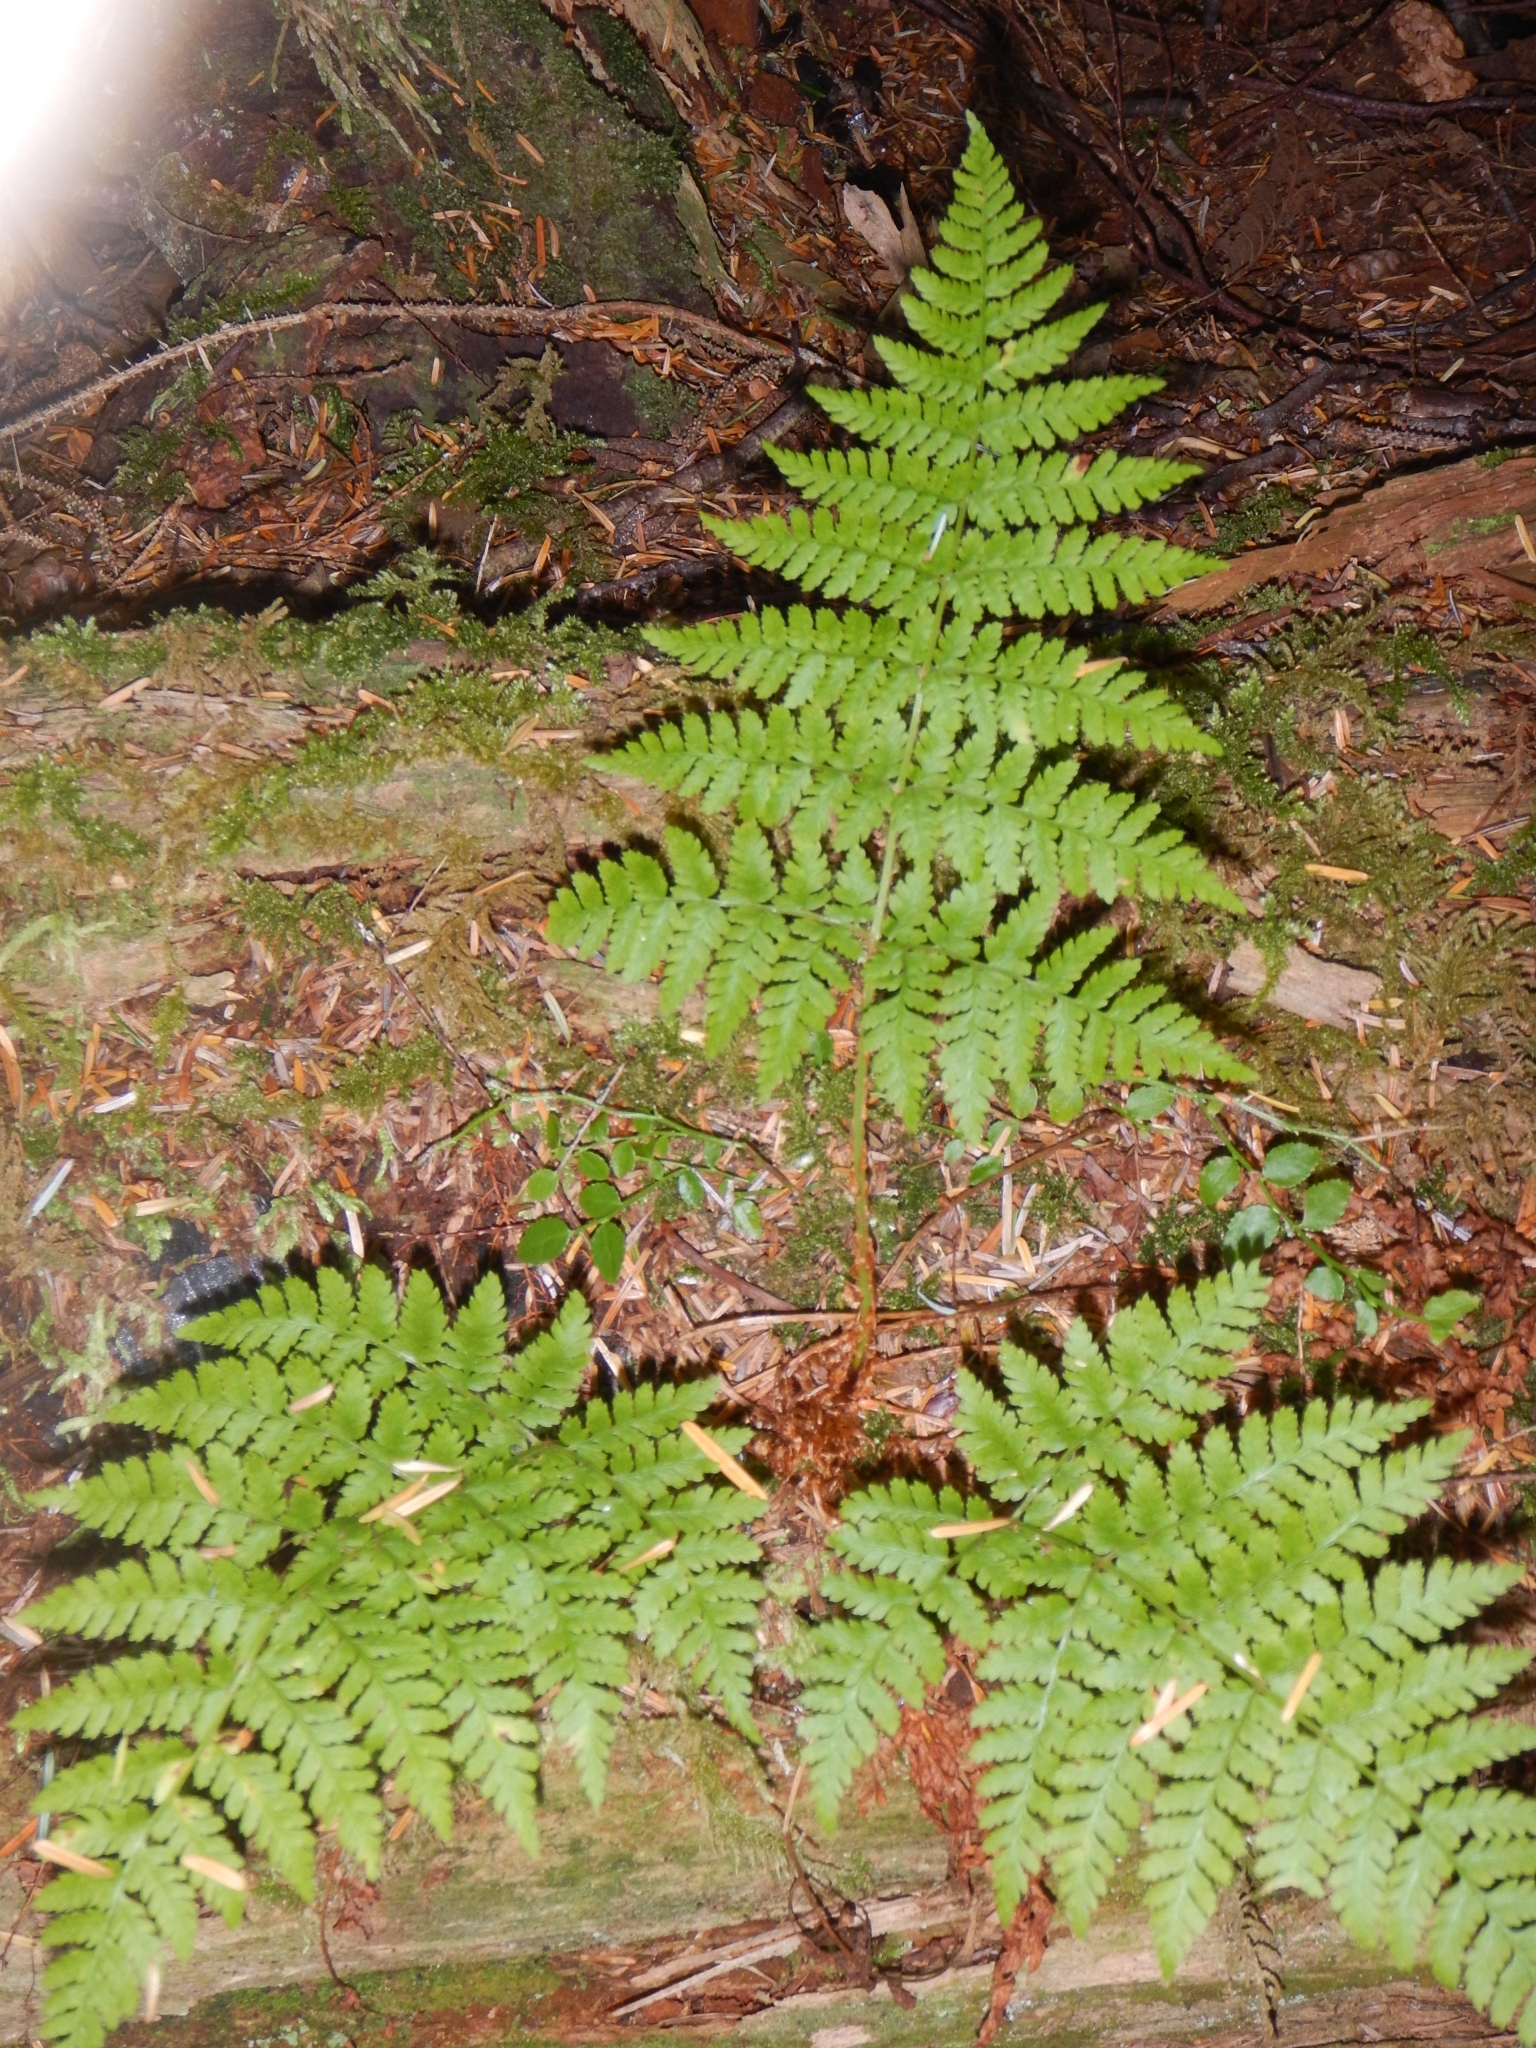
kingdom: Plantae
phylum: Tracheophyta
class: Polypodiopsida
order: Polypodiales
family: Dryopteridaceae
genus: Dryopteris
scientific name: Dryopteris expansa
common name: Northern buckler fern
